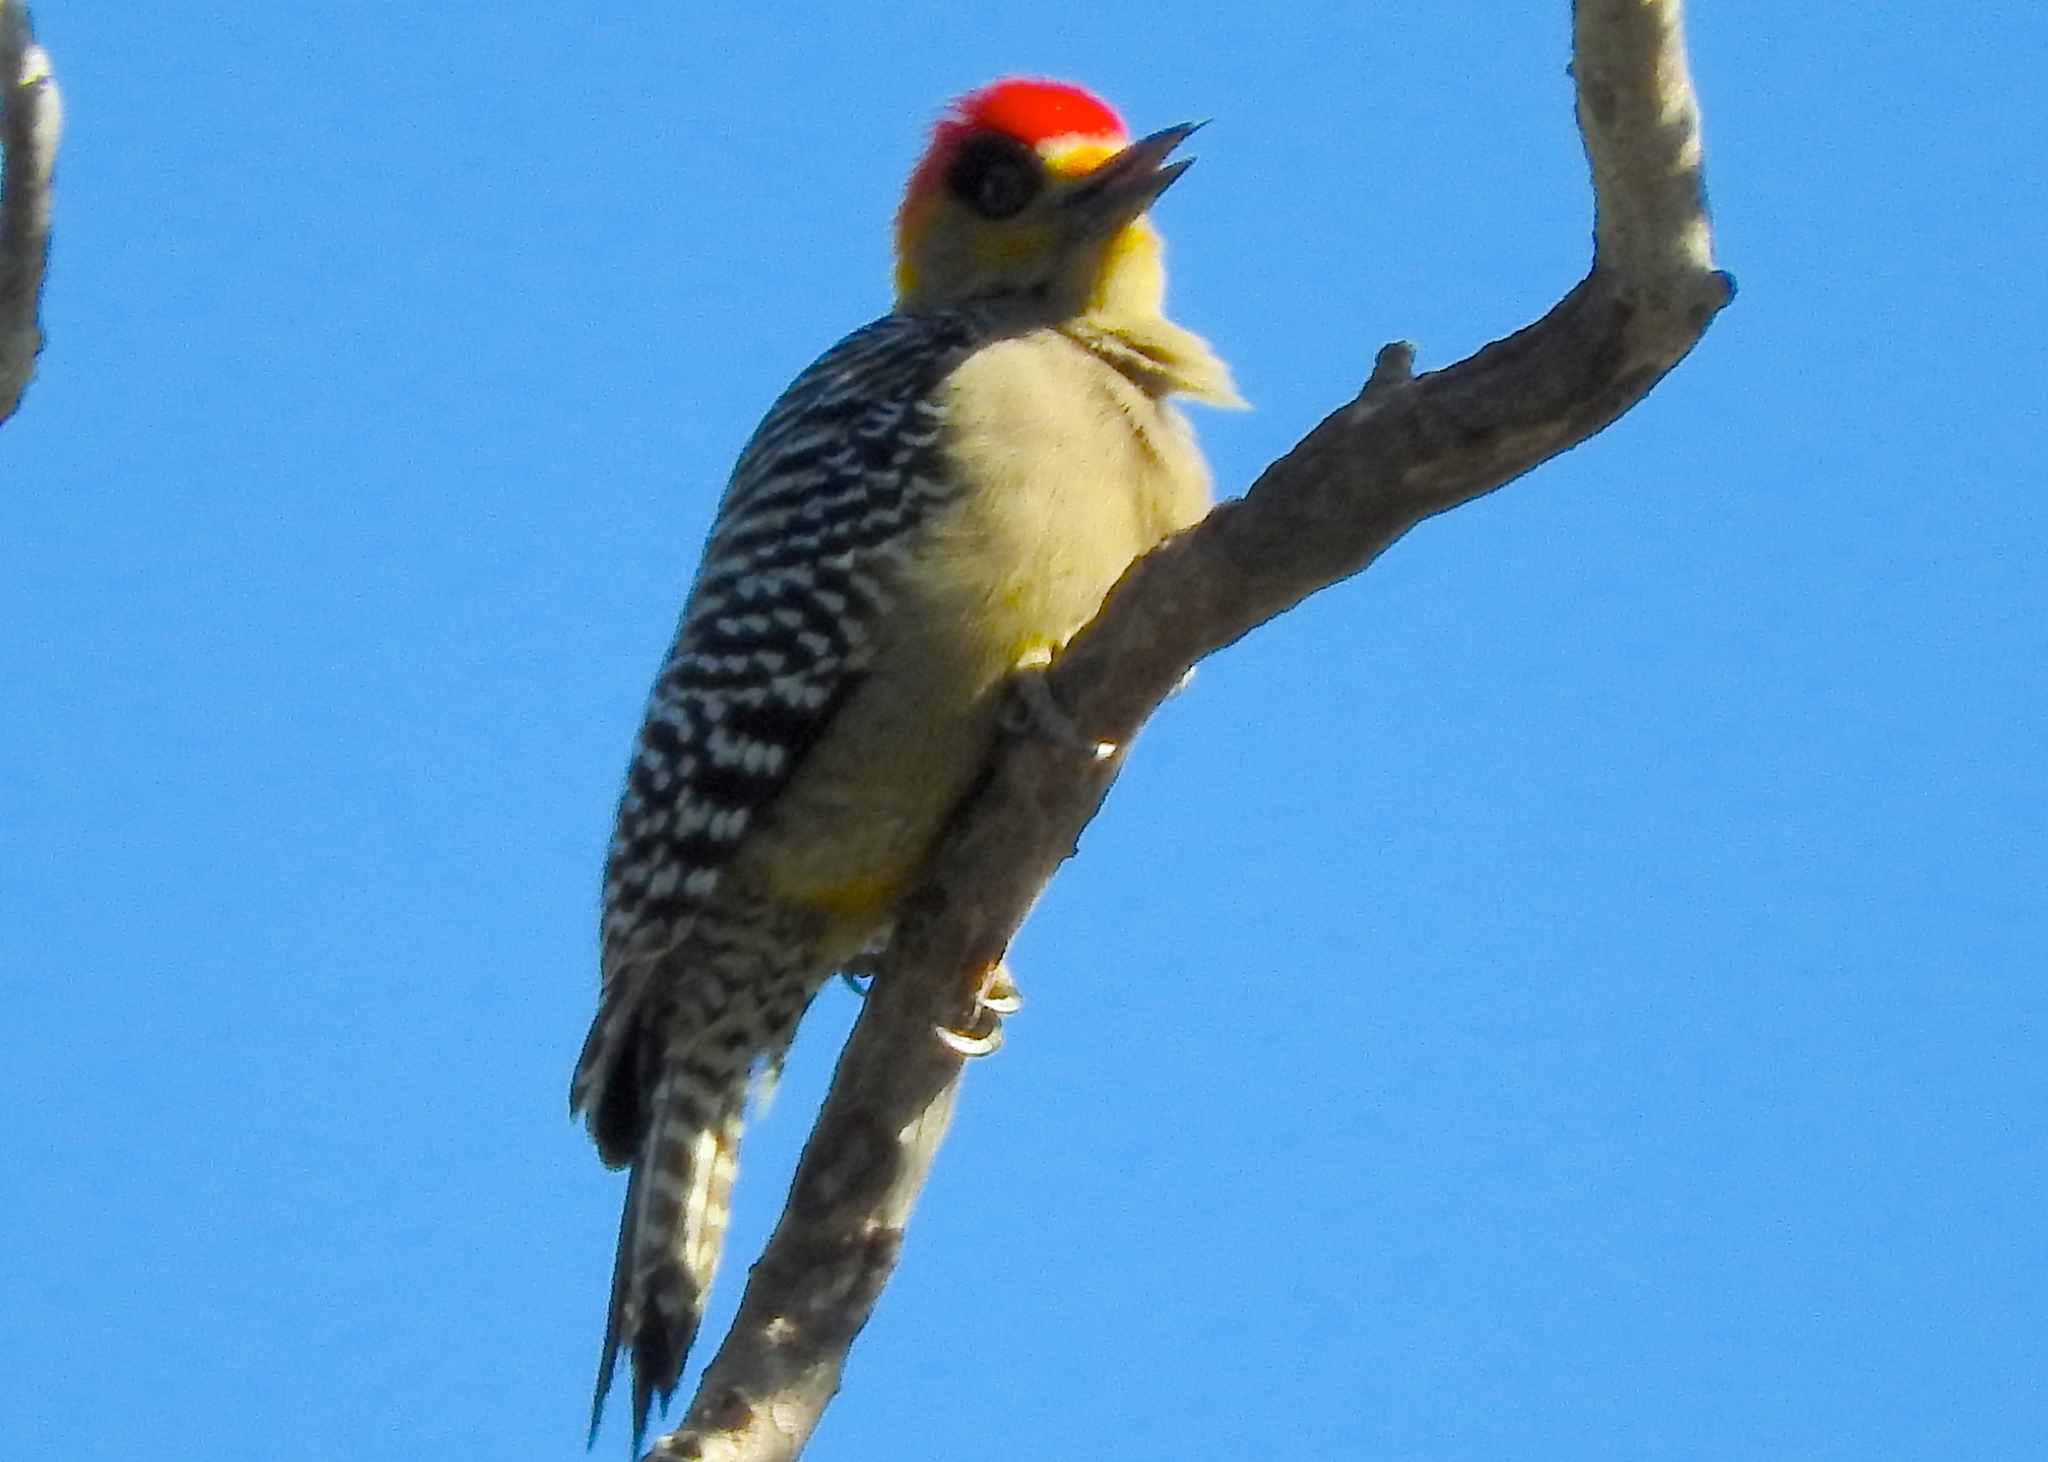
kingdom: Animalia
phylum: Chordata
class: Aves
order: Piciformes
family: Picidae
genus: Melanerpes
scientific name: Melanerpes chrysogenys
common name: Golden-cheeked woodpecker
